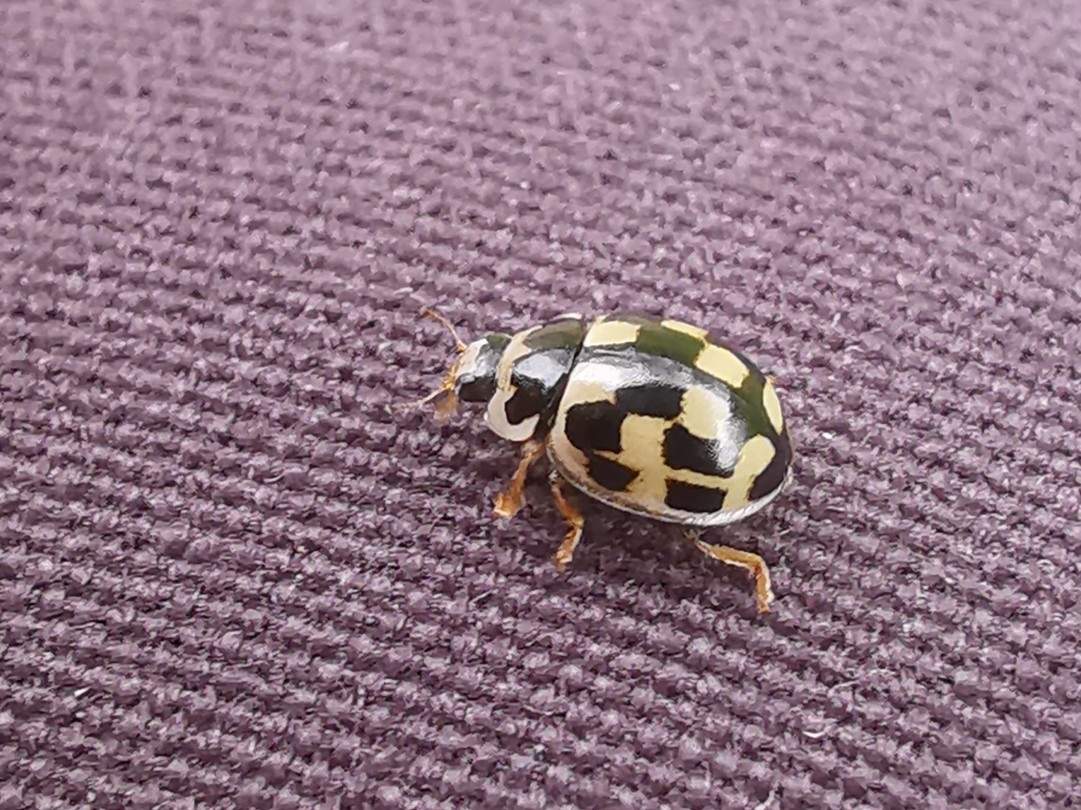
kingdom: Animalia
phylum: Arthropoda
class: Insecta
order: Coleoptera
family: Coccinellidae
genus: Propylaea
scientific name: Propylaea quatuordecimpunctata
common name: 14-spotted ladybird beetle
